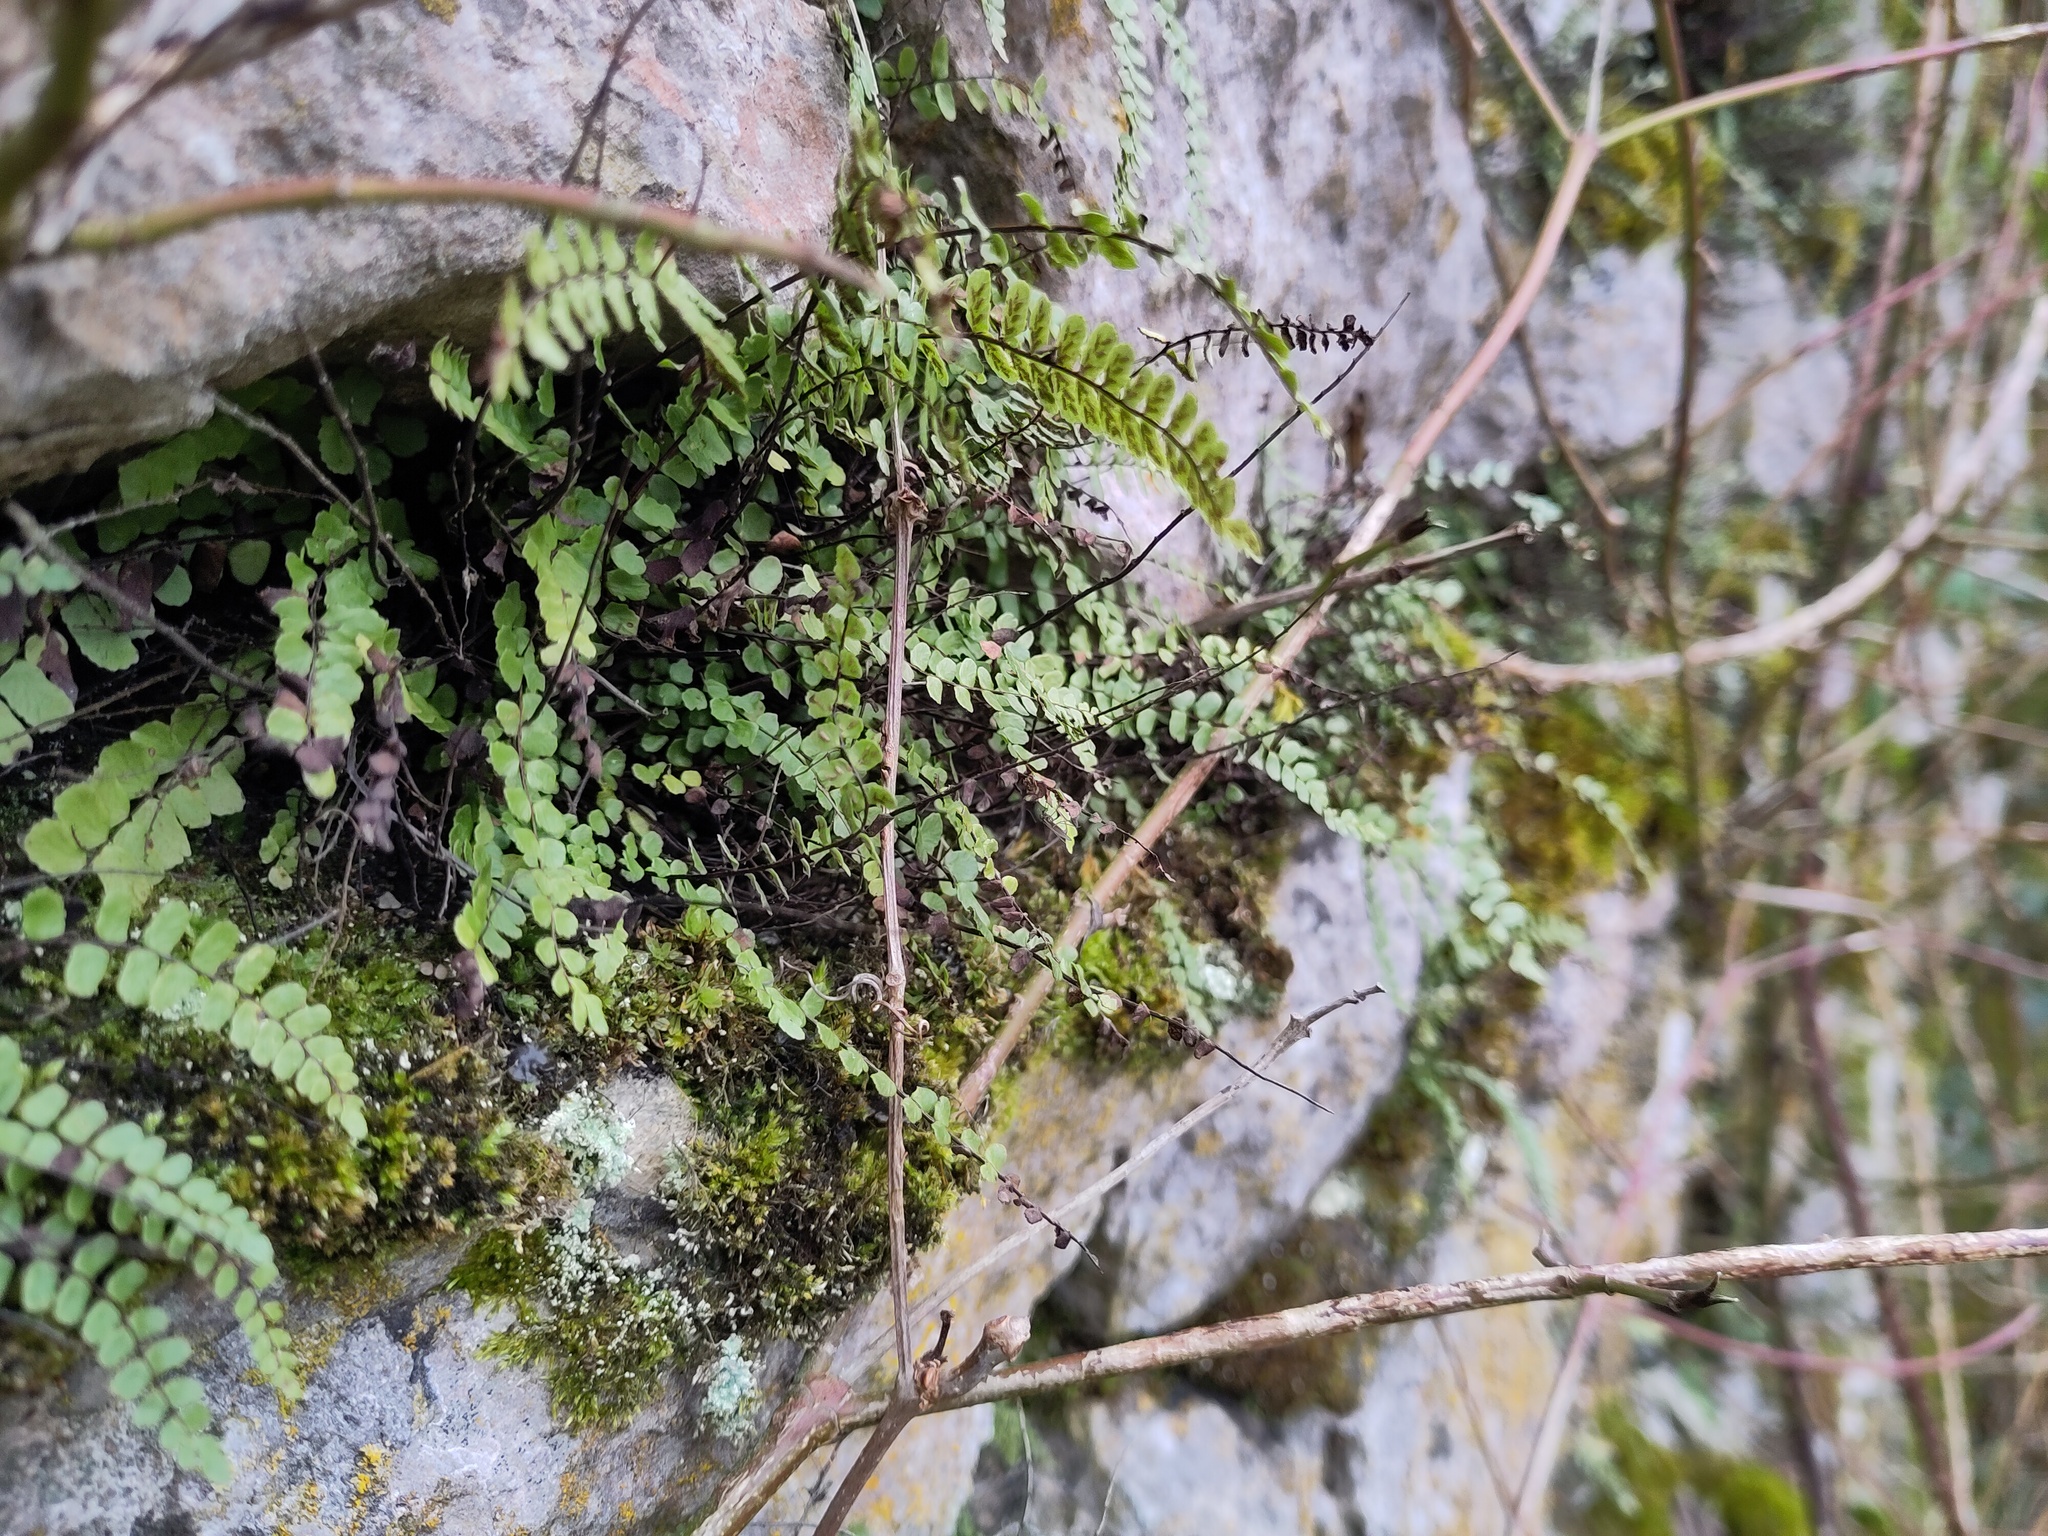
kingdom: Plantae
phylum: Tracheophyta
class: Polypodiopsida
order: Polypodiales
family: Aspleniaceae
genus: Asplenium
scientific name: Asplenium trichomanes
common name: Maidenhair spleenwort
